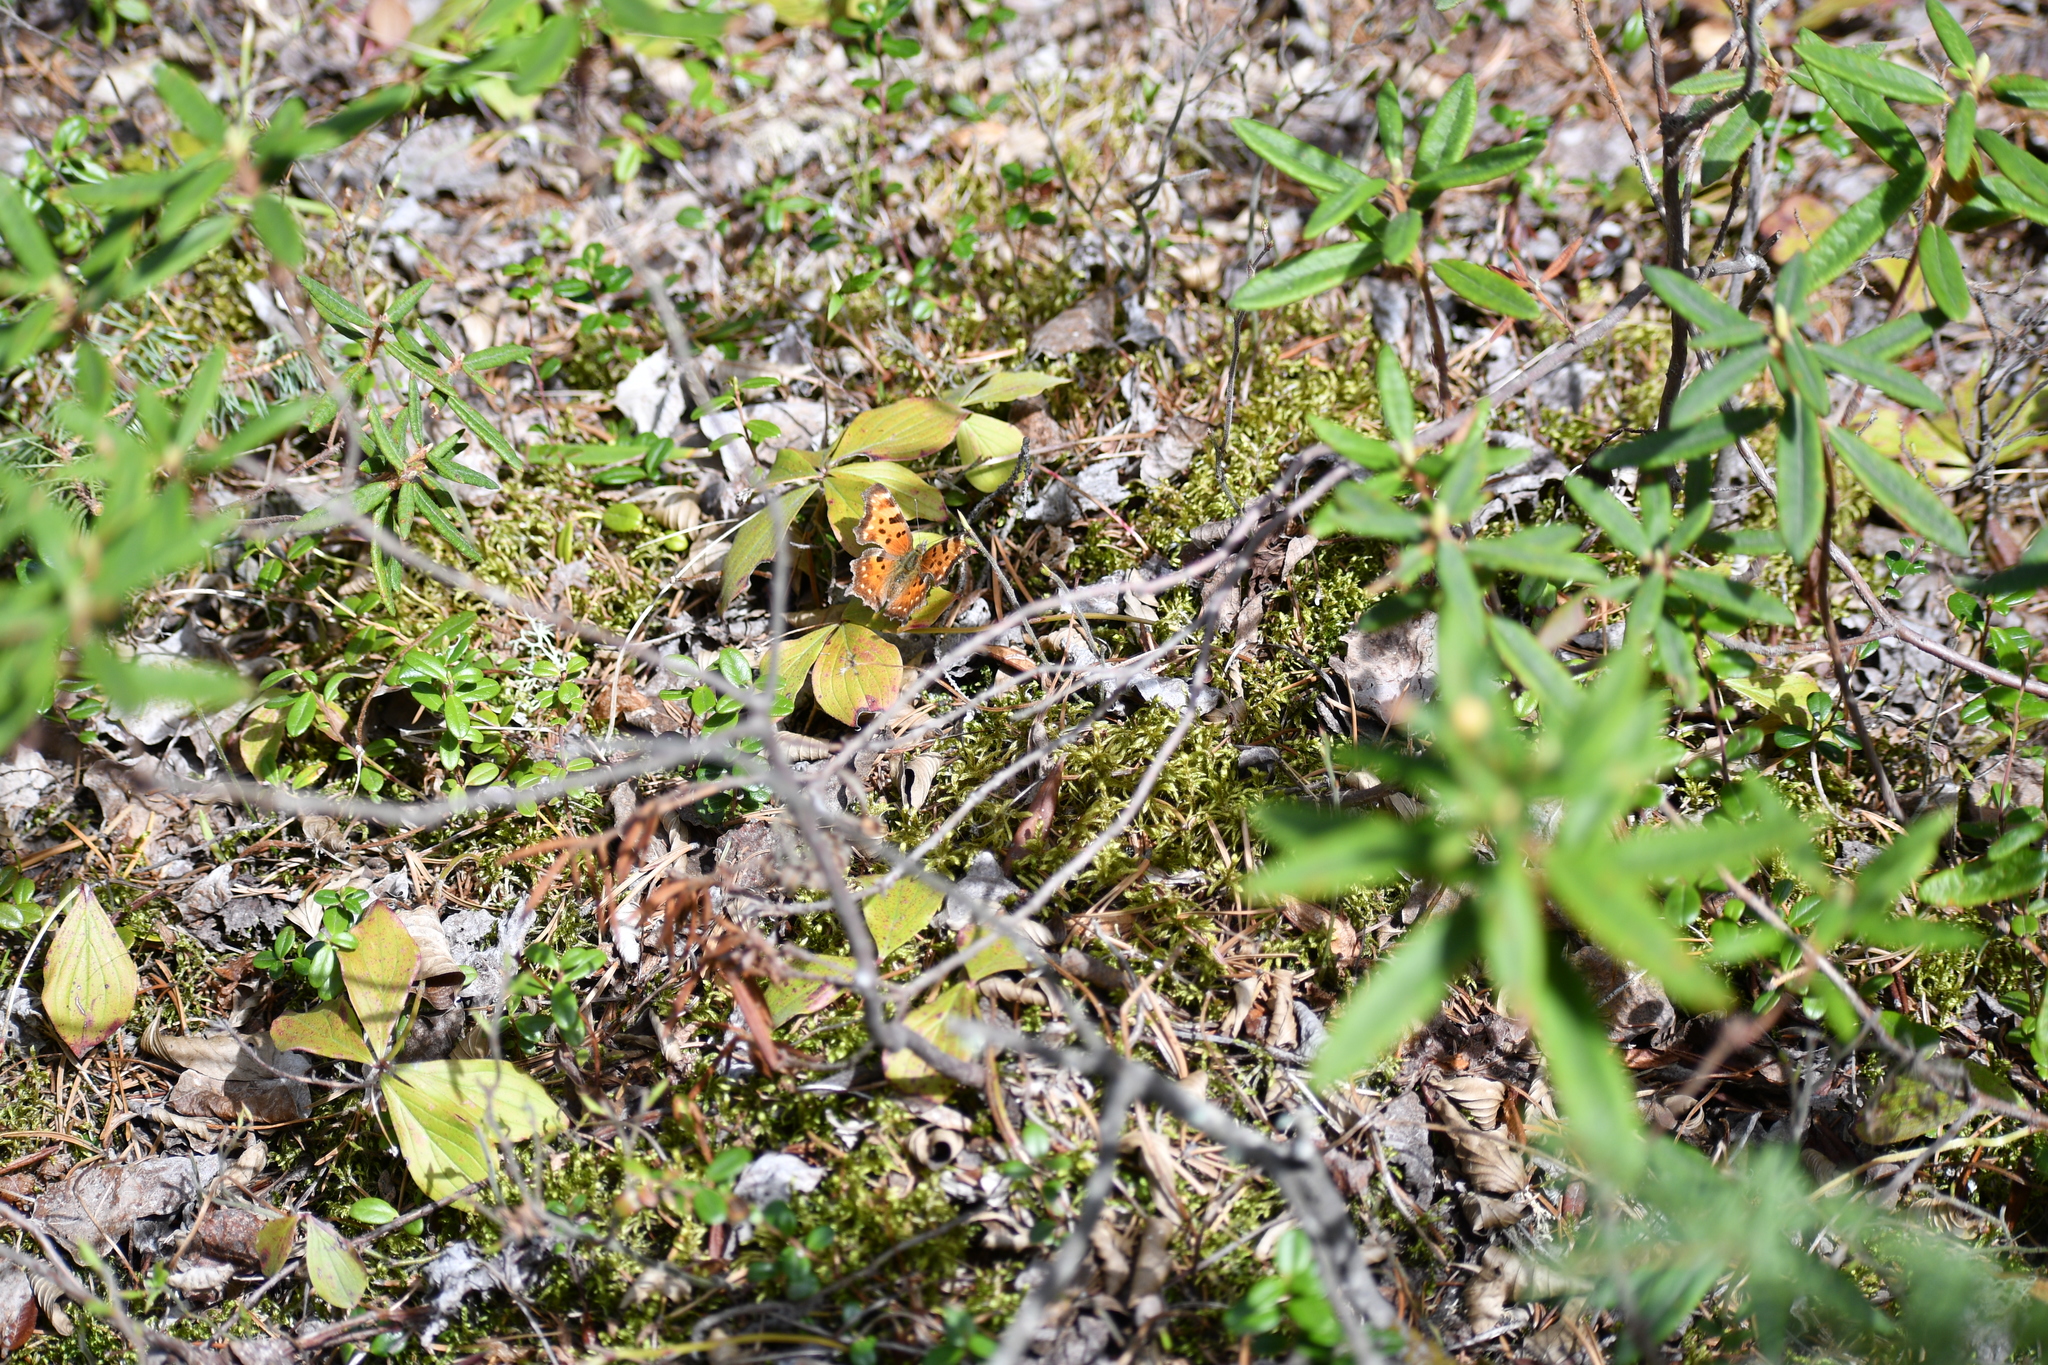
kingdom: Animalia
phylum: Arthropoda
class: Insecta
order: Lepidoptera
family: Nymphalidae
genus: Polygonia
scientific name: Polygonia faunus
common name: Green comma
